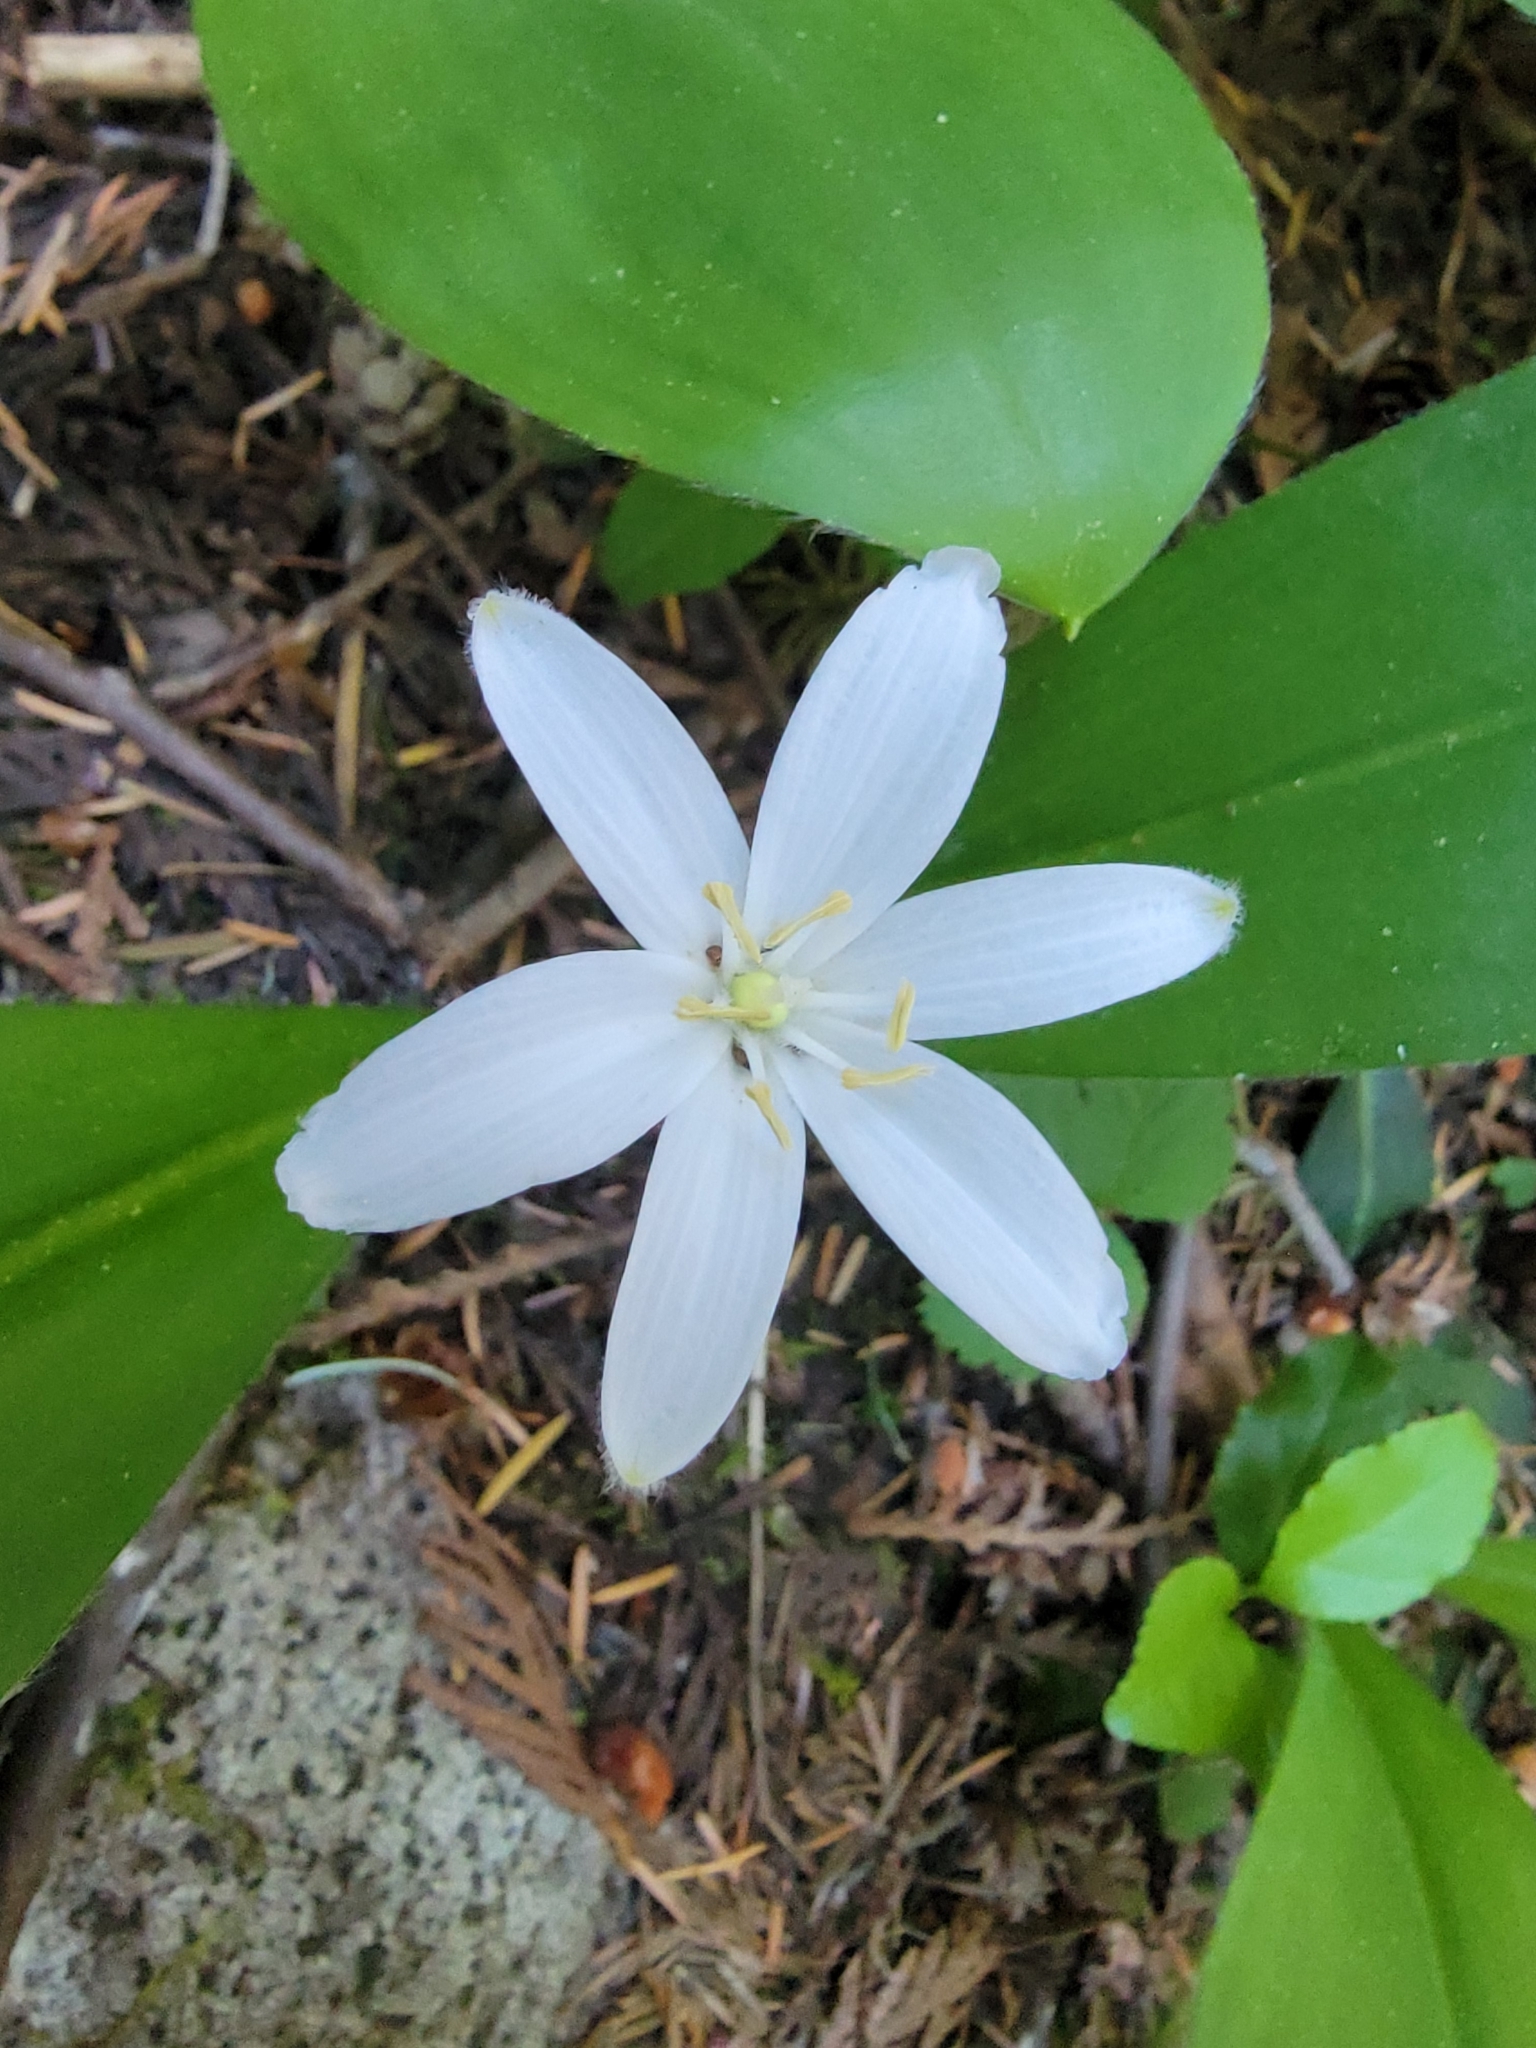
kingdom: Plantae
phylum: Tracheophyta
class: Liliopsida
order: Liliales
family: Liliaceae
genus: Clintonia
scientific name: Clintonia uniflora
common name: Queen's cup
